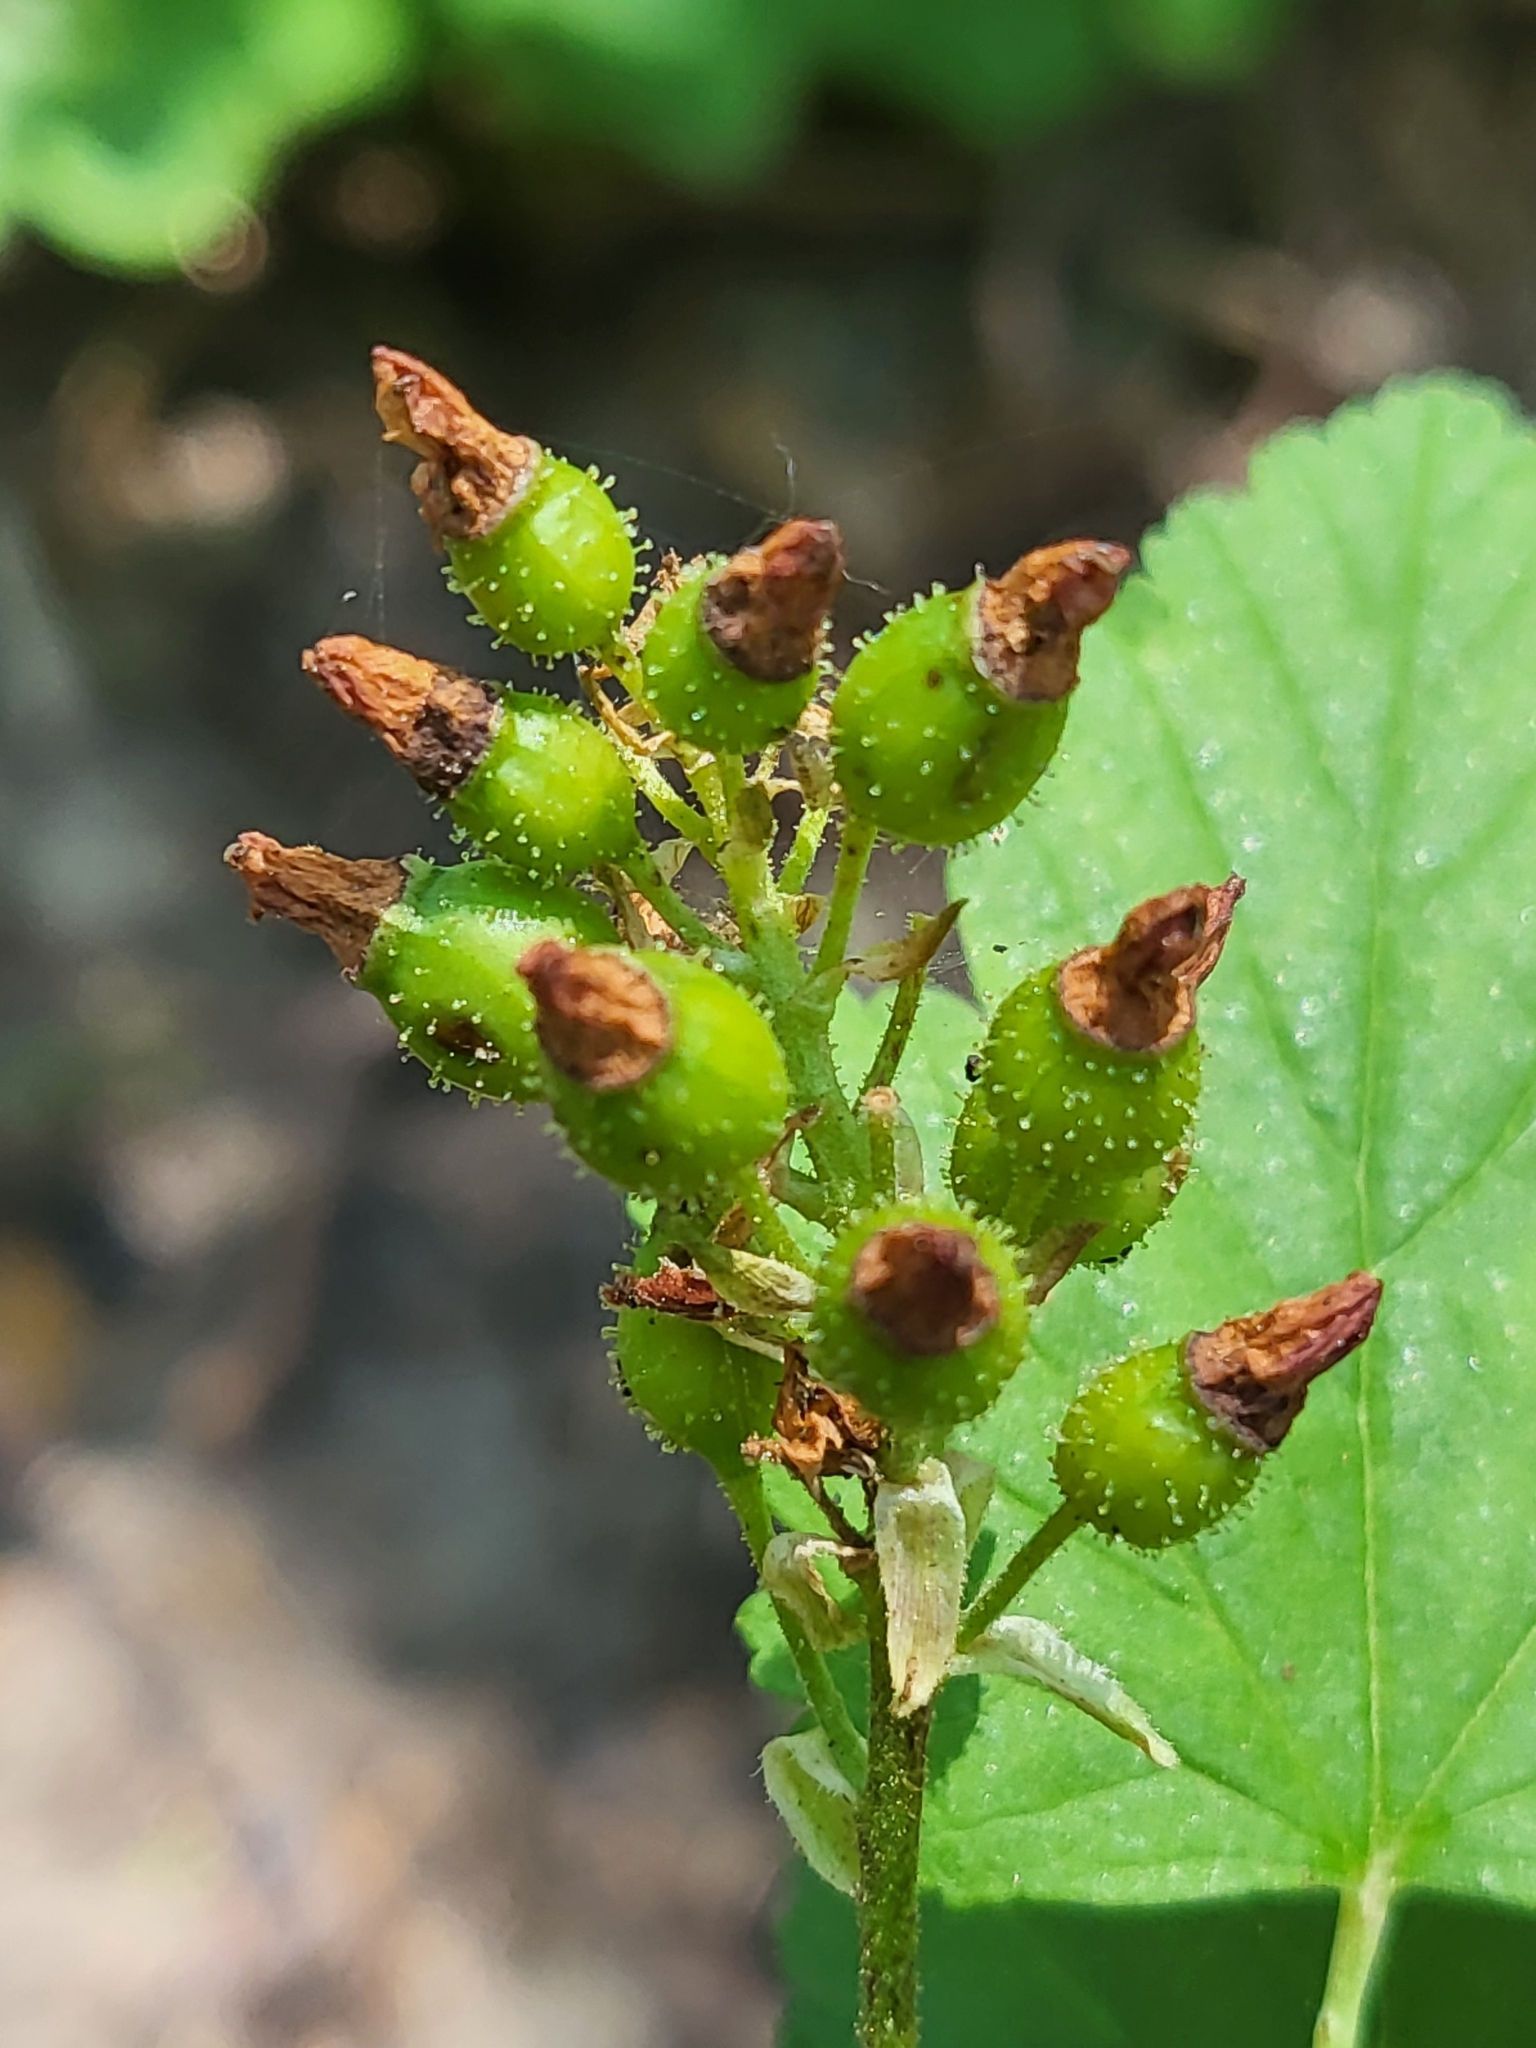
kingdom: Plantae
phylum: Tracheophyta
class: Magnoliopsida
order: Saxifragales
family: Grossulariaceae
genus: Ribes
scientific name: Ribes nevadense
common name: Mountain pink currant
